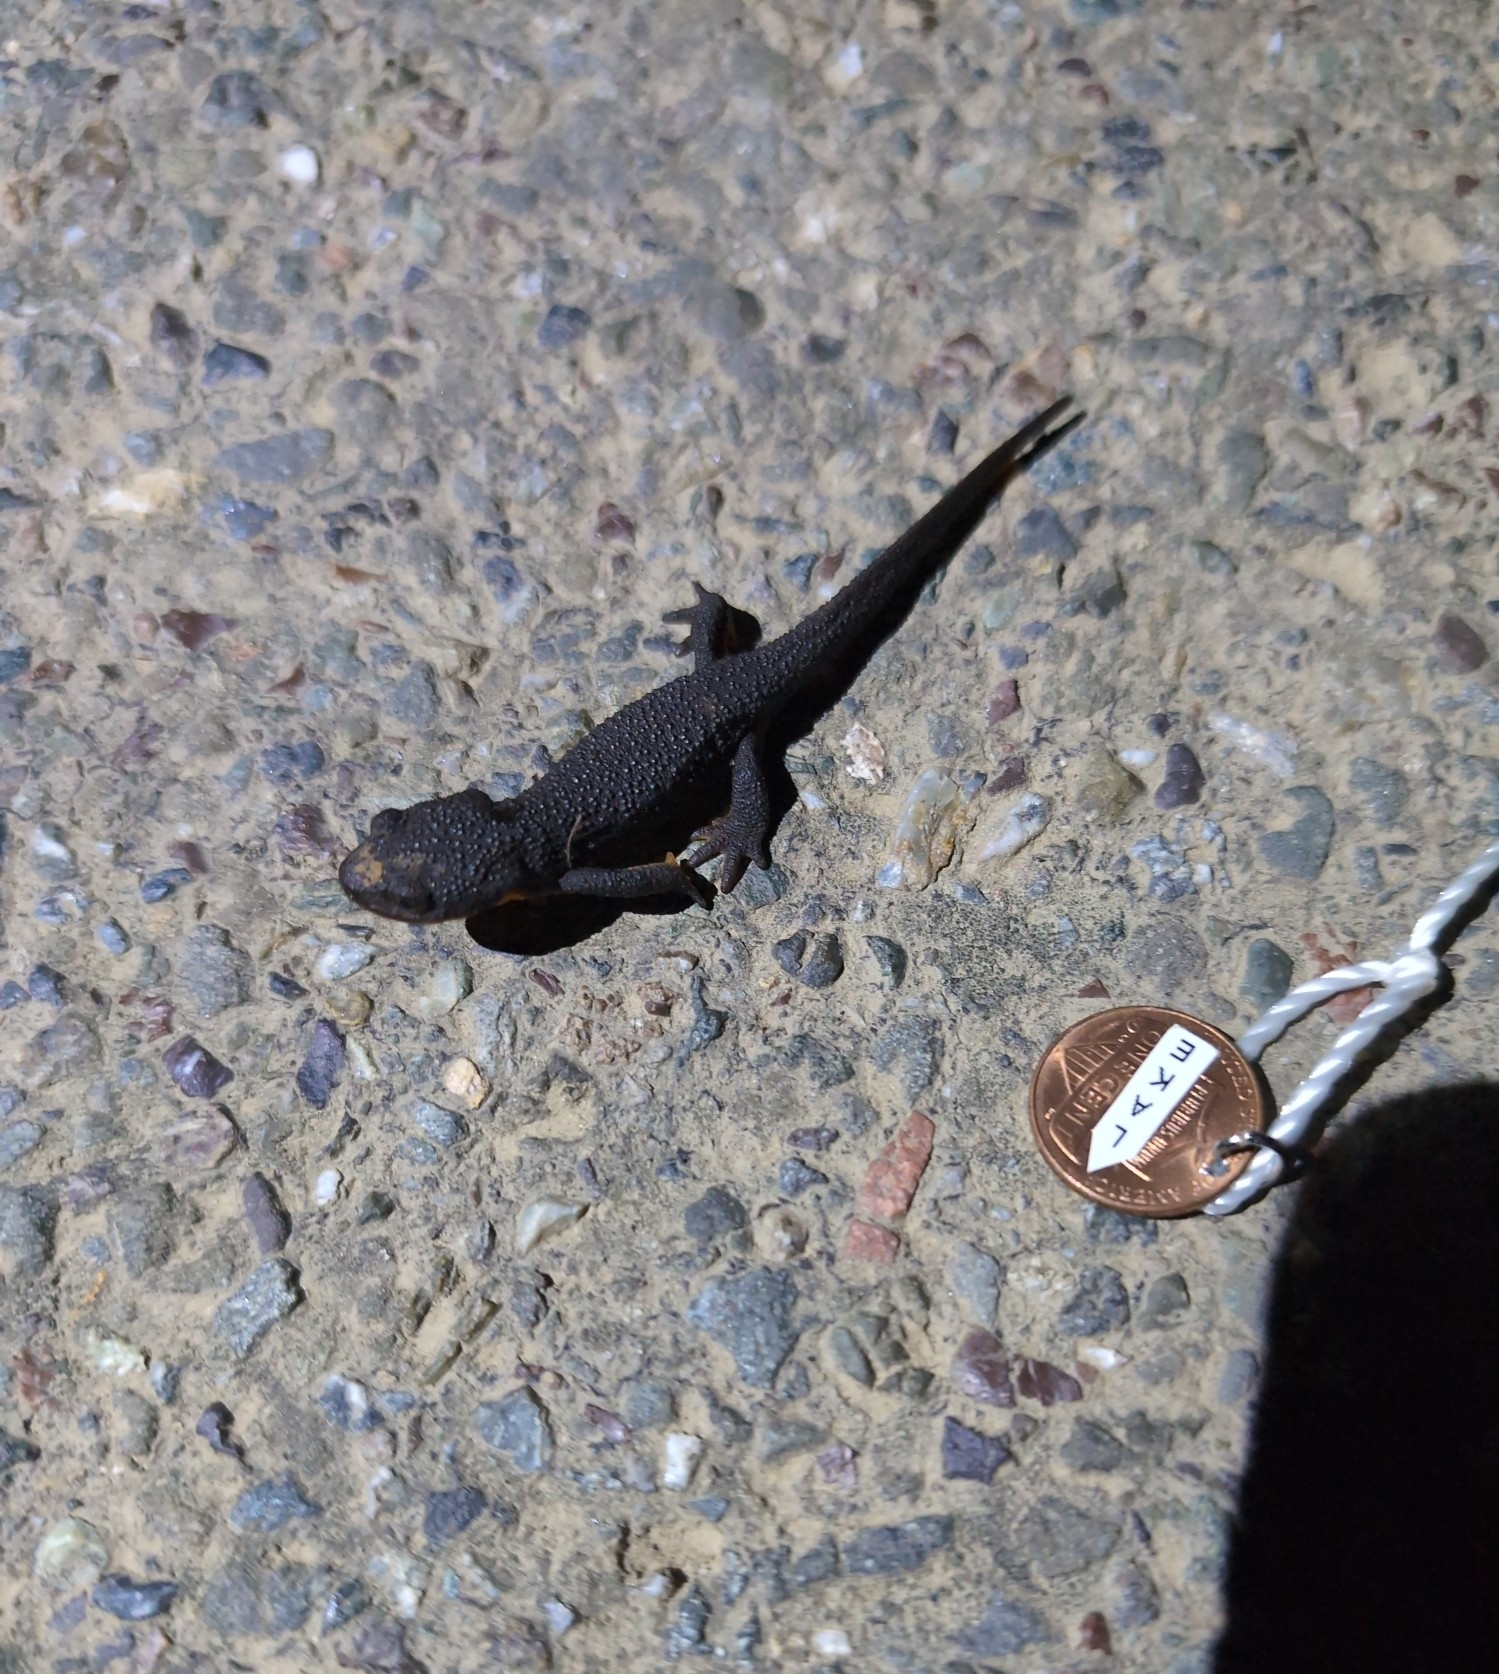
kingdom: Animalia
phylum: Chordata
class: Amphibia
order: Caudata
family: Salamandridae
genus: Taricha
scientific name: Taricha granulosa
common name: Roughskin newt
